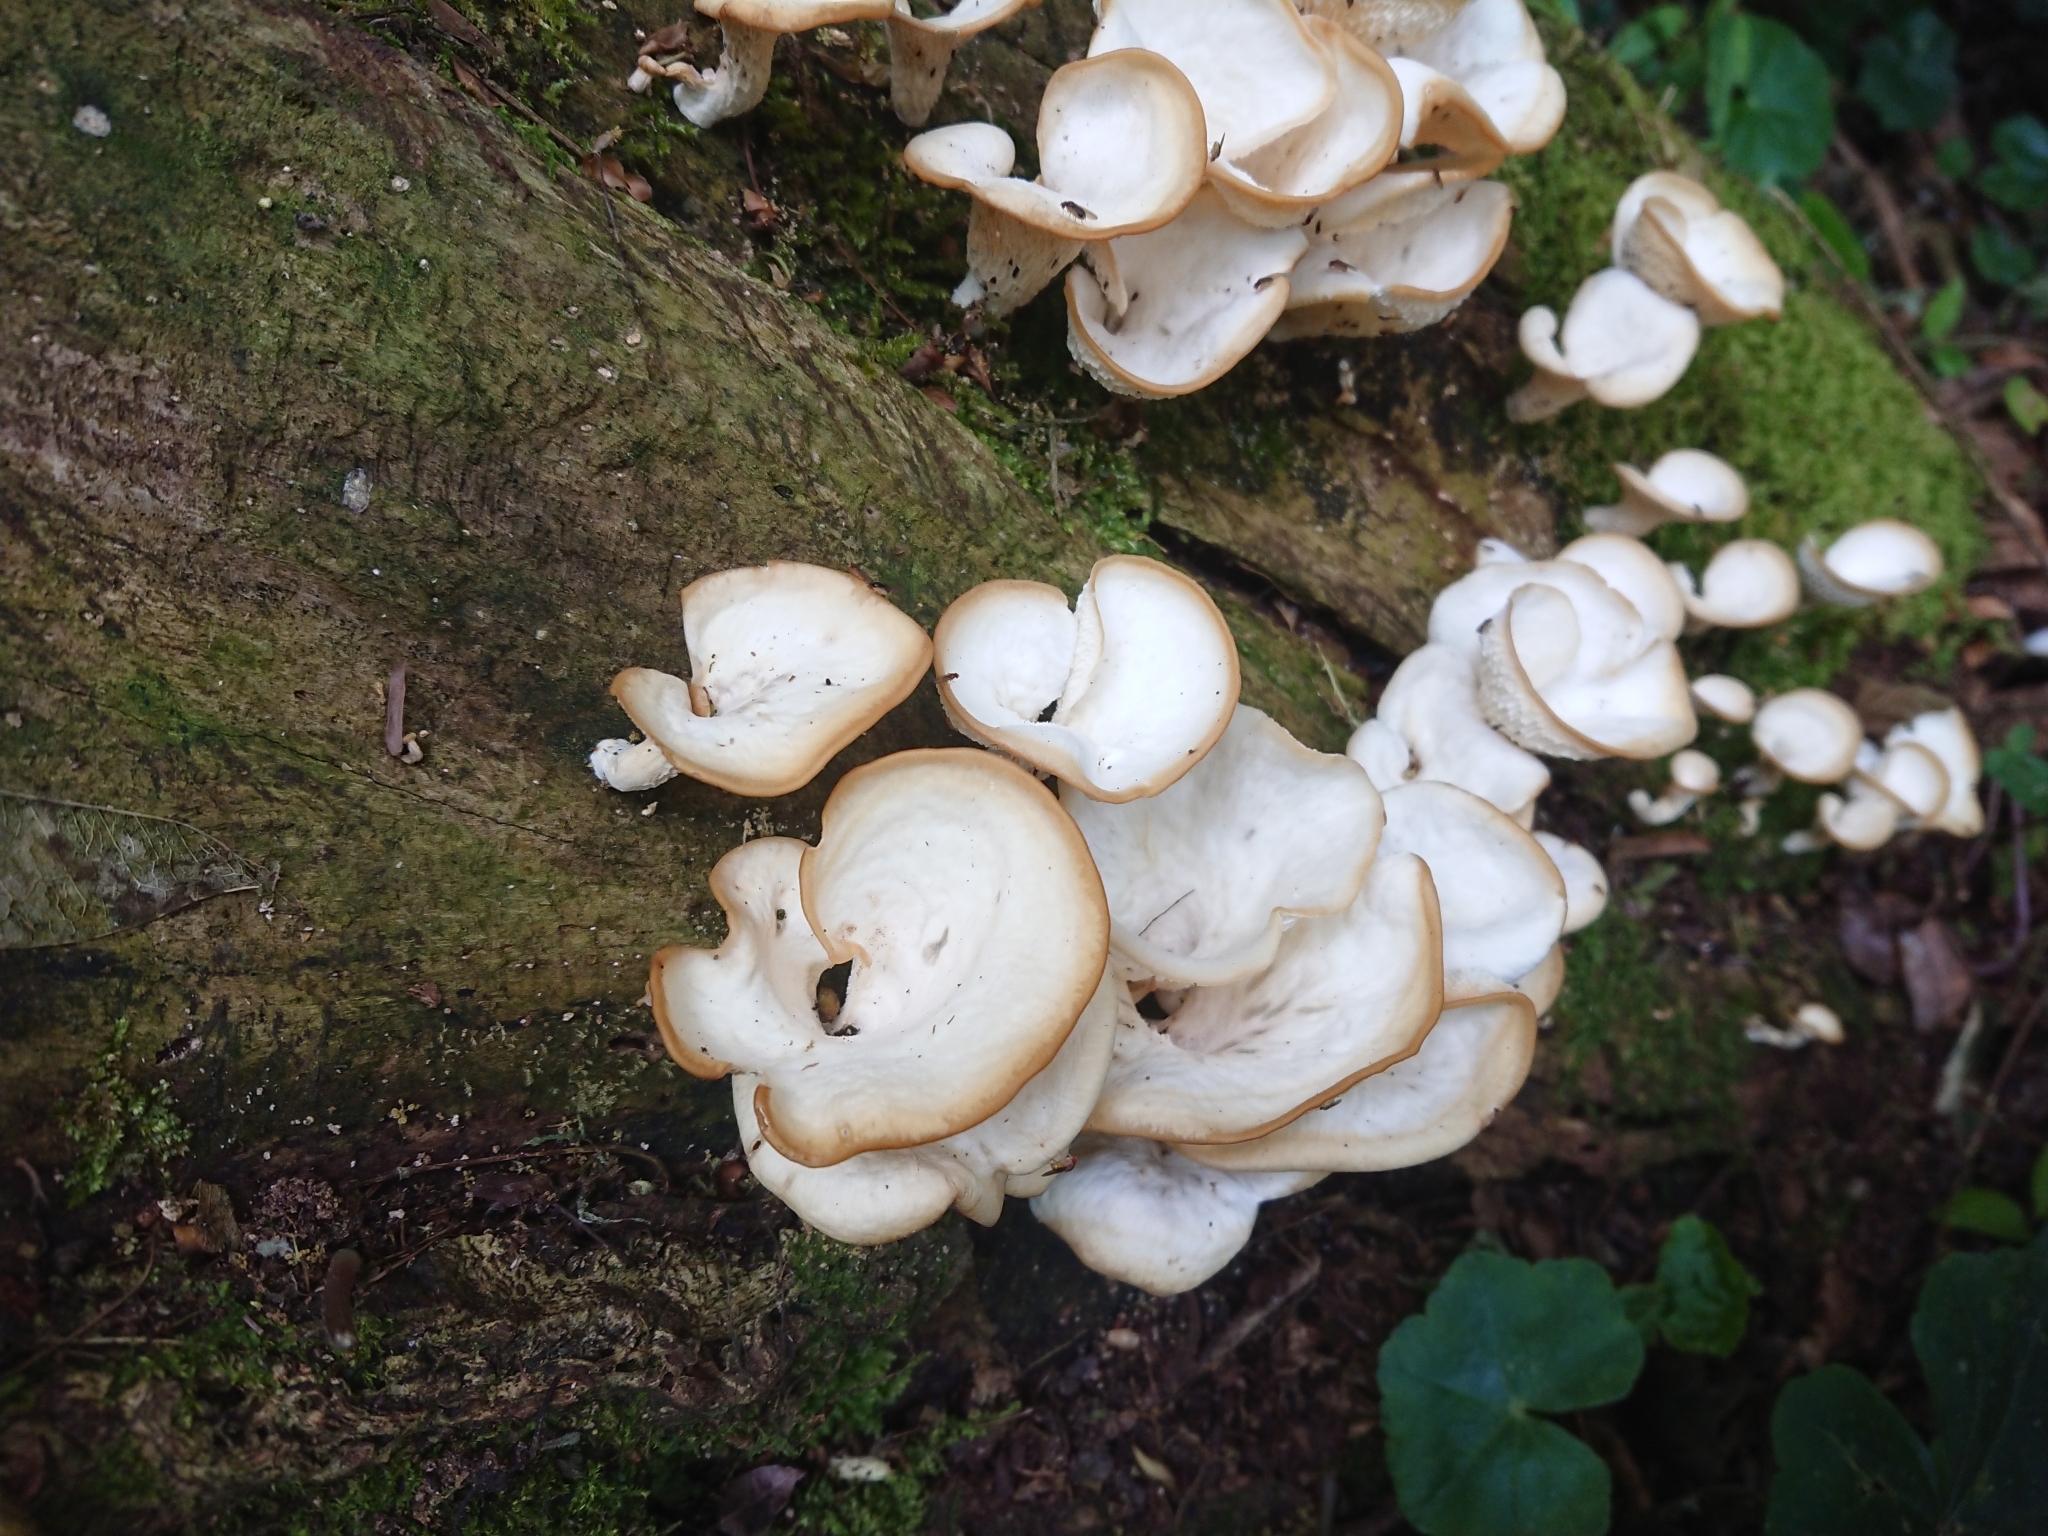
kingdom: Fungi
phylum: Basidiomycota
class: Agaricomycetes
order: Polyporales
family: Polyporaceae
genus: Favolus
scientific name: Favolus tenuiculus
